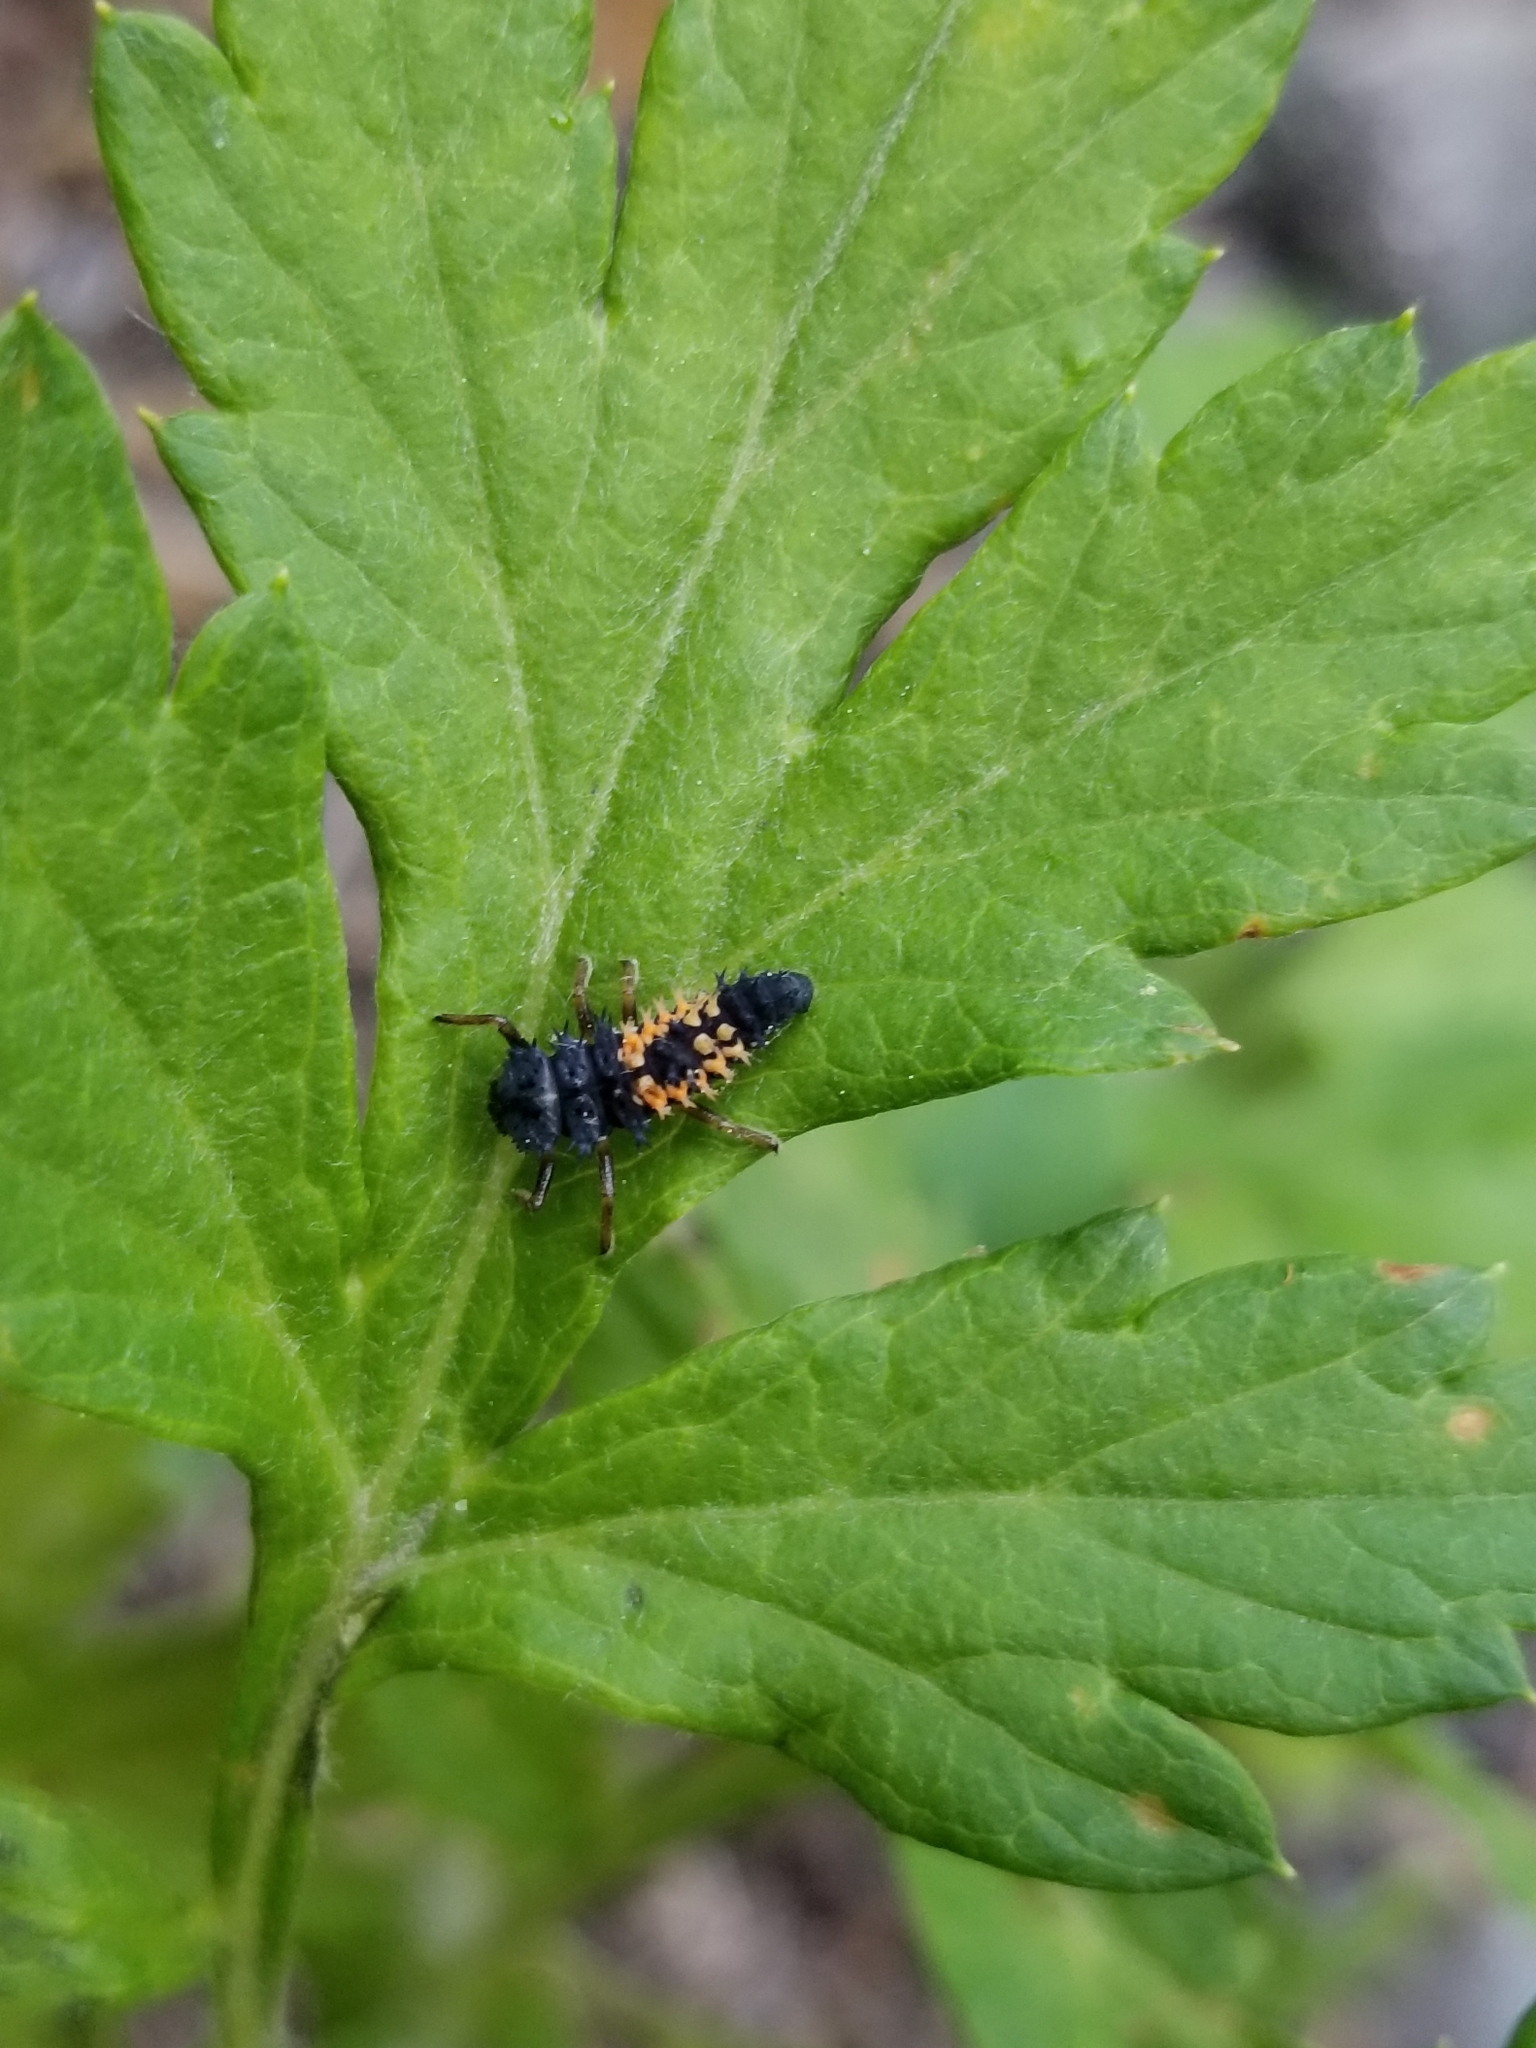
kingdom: Animalia
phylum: Arthropoda
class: Insecta
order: Coleoptera
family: Coccinellidae
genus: Harmonia
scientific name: Harmonia axyridis
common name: Harlequin ladybird
